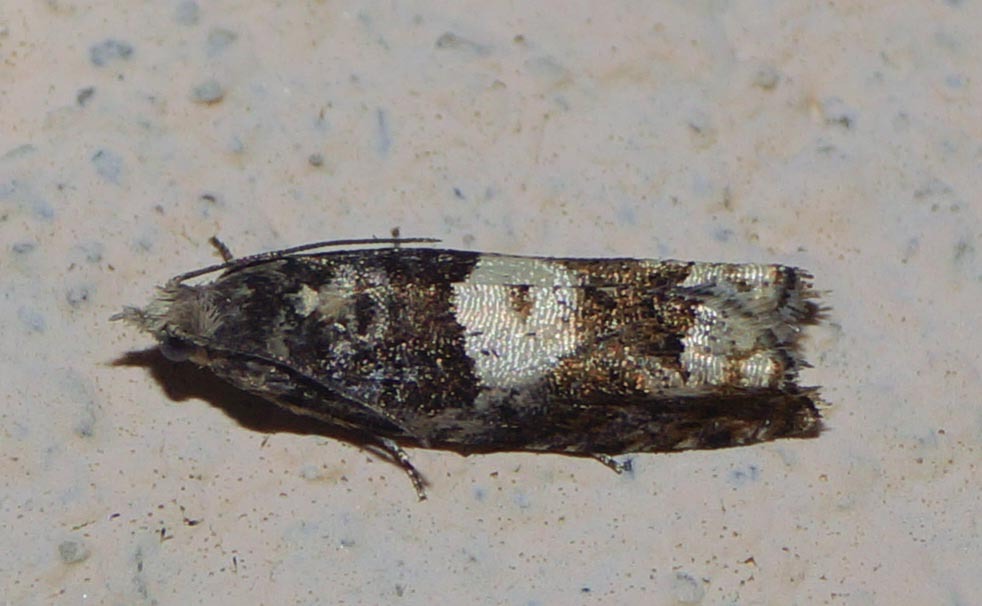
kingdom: Animalia
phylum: Arthropoda
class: Insecta
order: Lepidoptera
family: Tortricidae
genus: Epinotia
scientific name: Epinotia demarniana
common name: Birch bell
